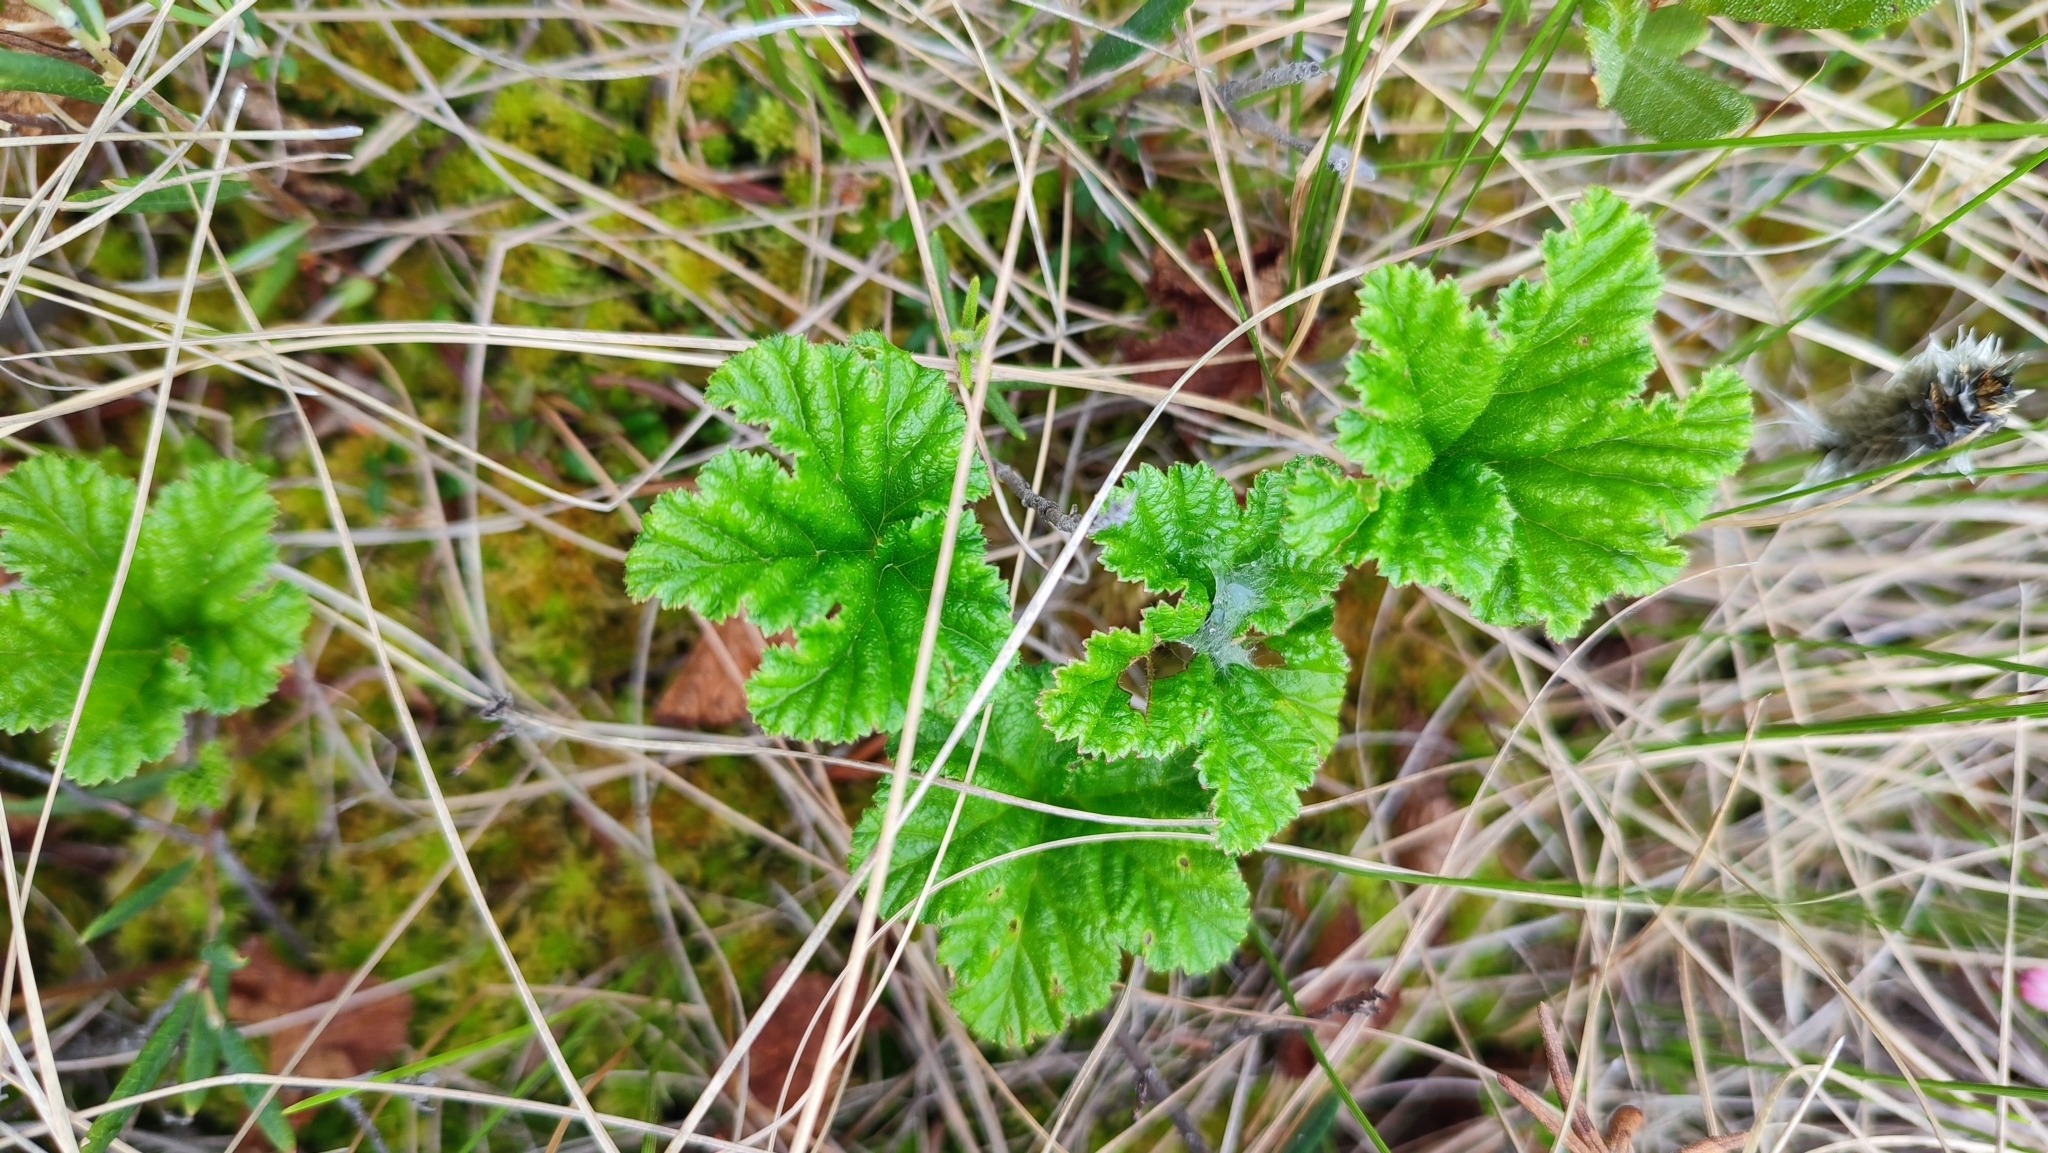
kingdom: Plantae
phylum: Tracheophyta
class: Magnoliopsida
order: Rosales
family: Rosaceae
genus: Rubus
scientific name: Rubus chamaemorus
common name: Cloudberry
